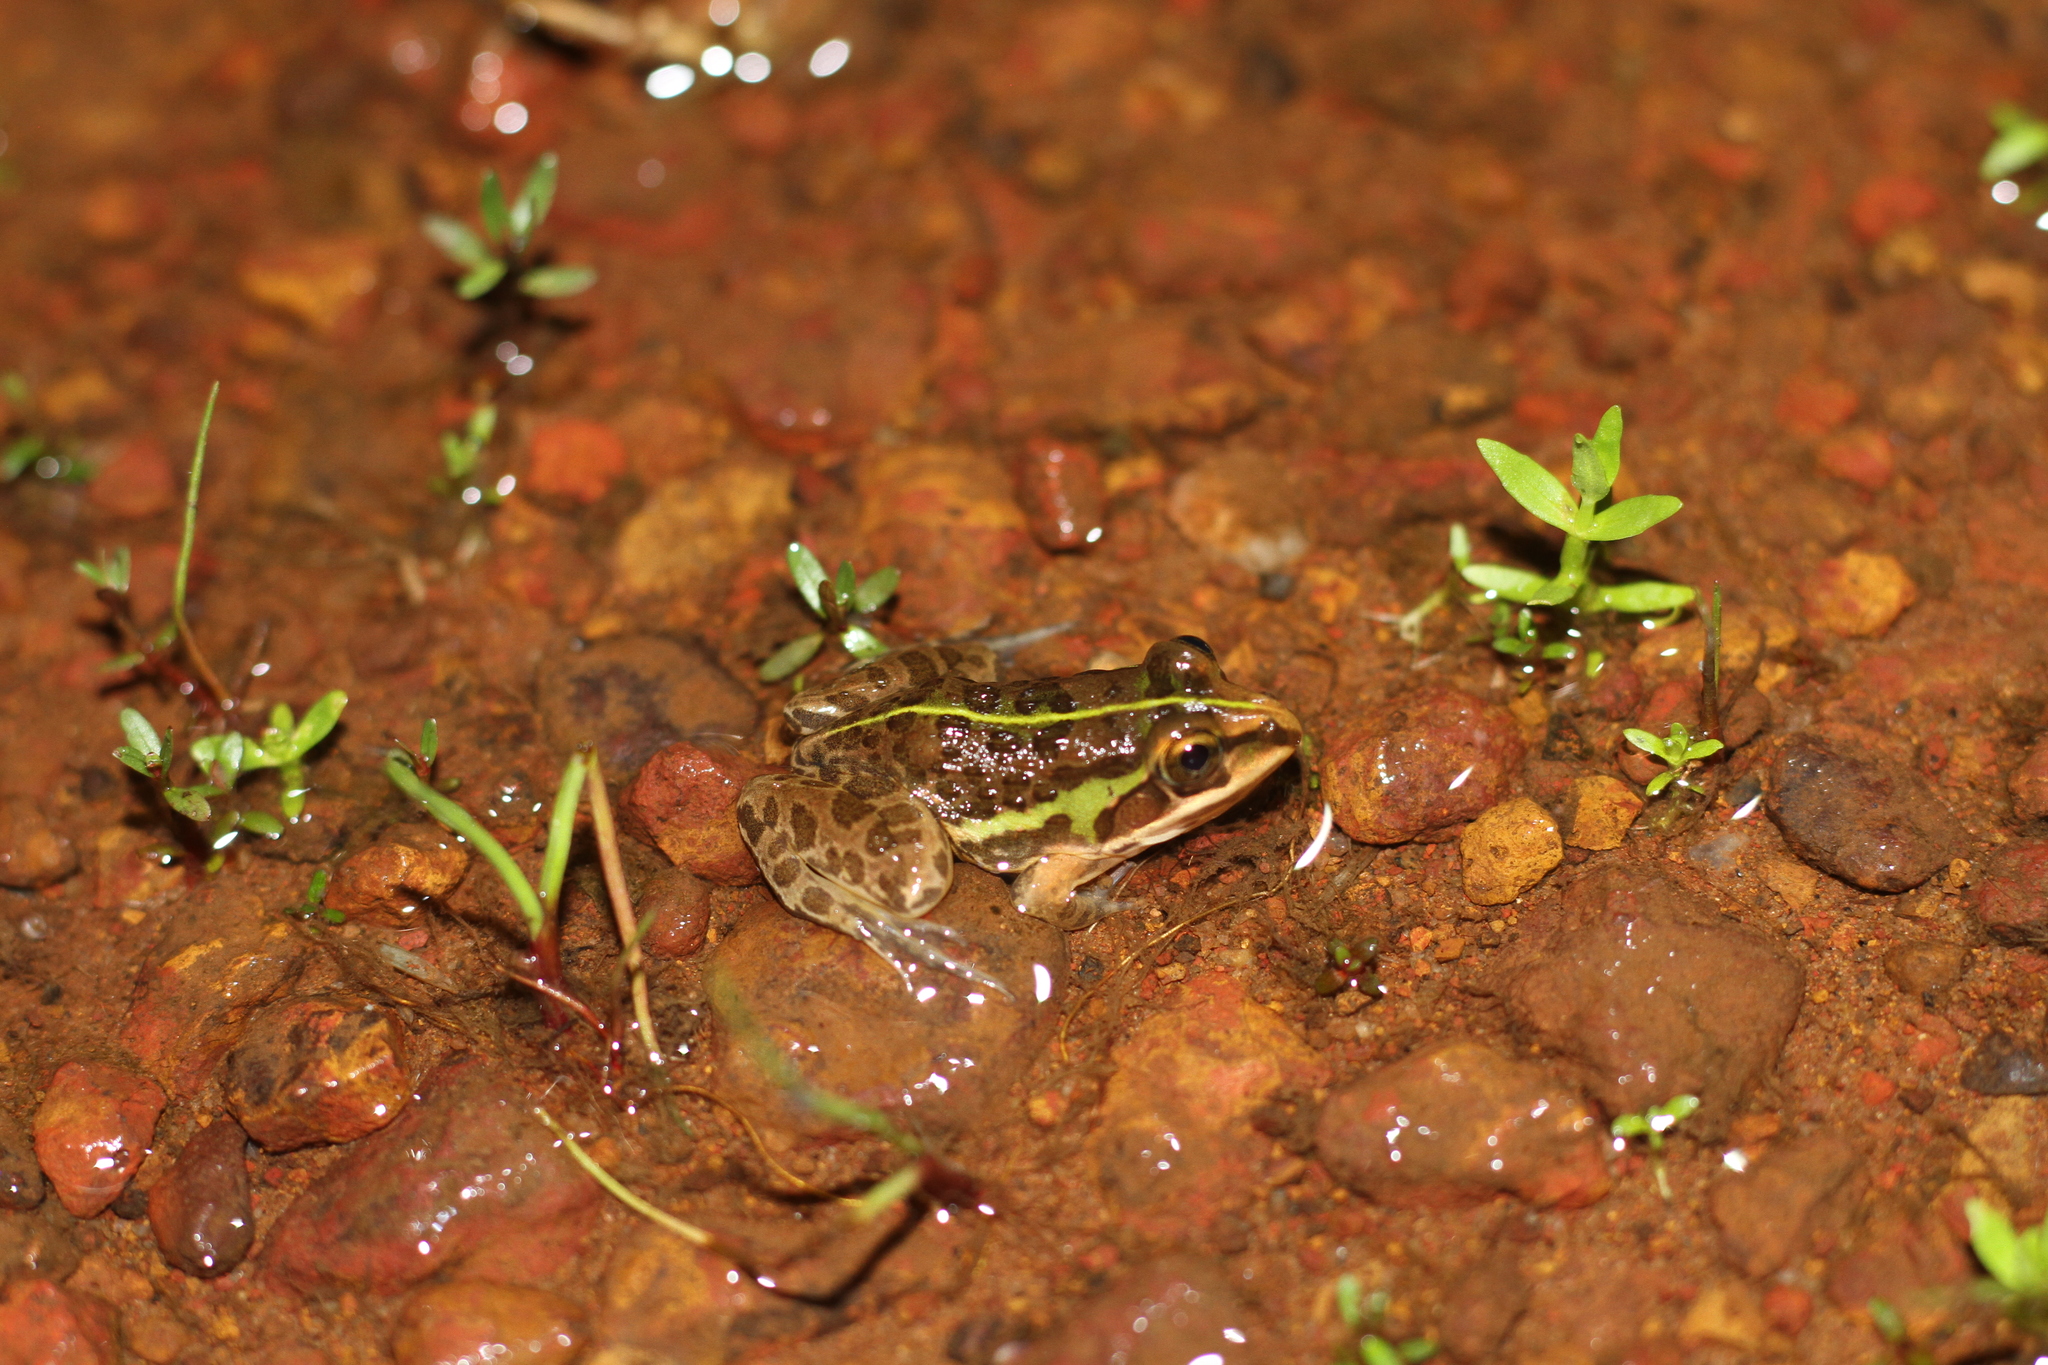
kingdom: Animalia
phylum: Chordata
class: Amphibia
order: Anura
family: Dicroglossidae
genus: Hoplobatrachus
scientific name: Hoplobatrachus tigerinus
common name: Indian bullfrog
